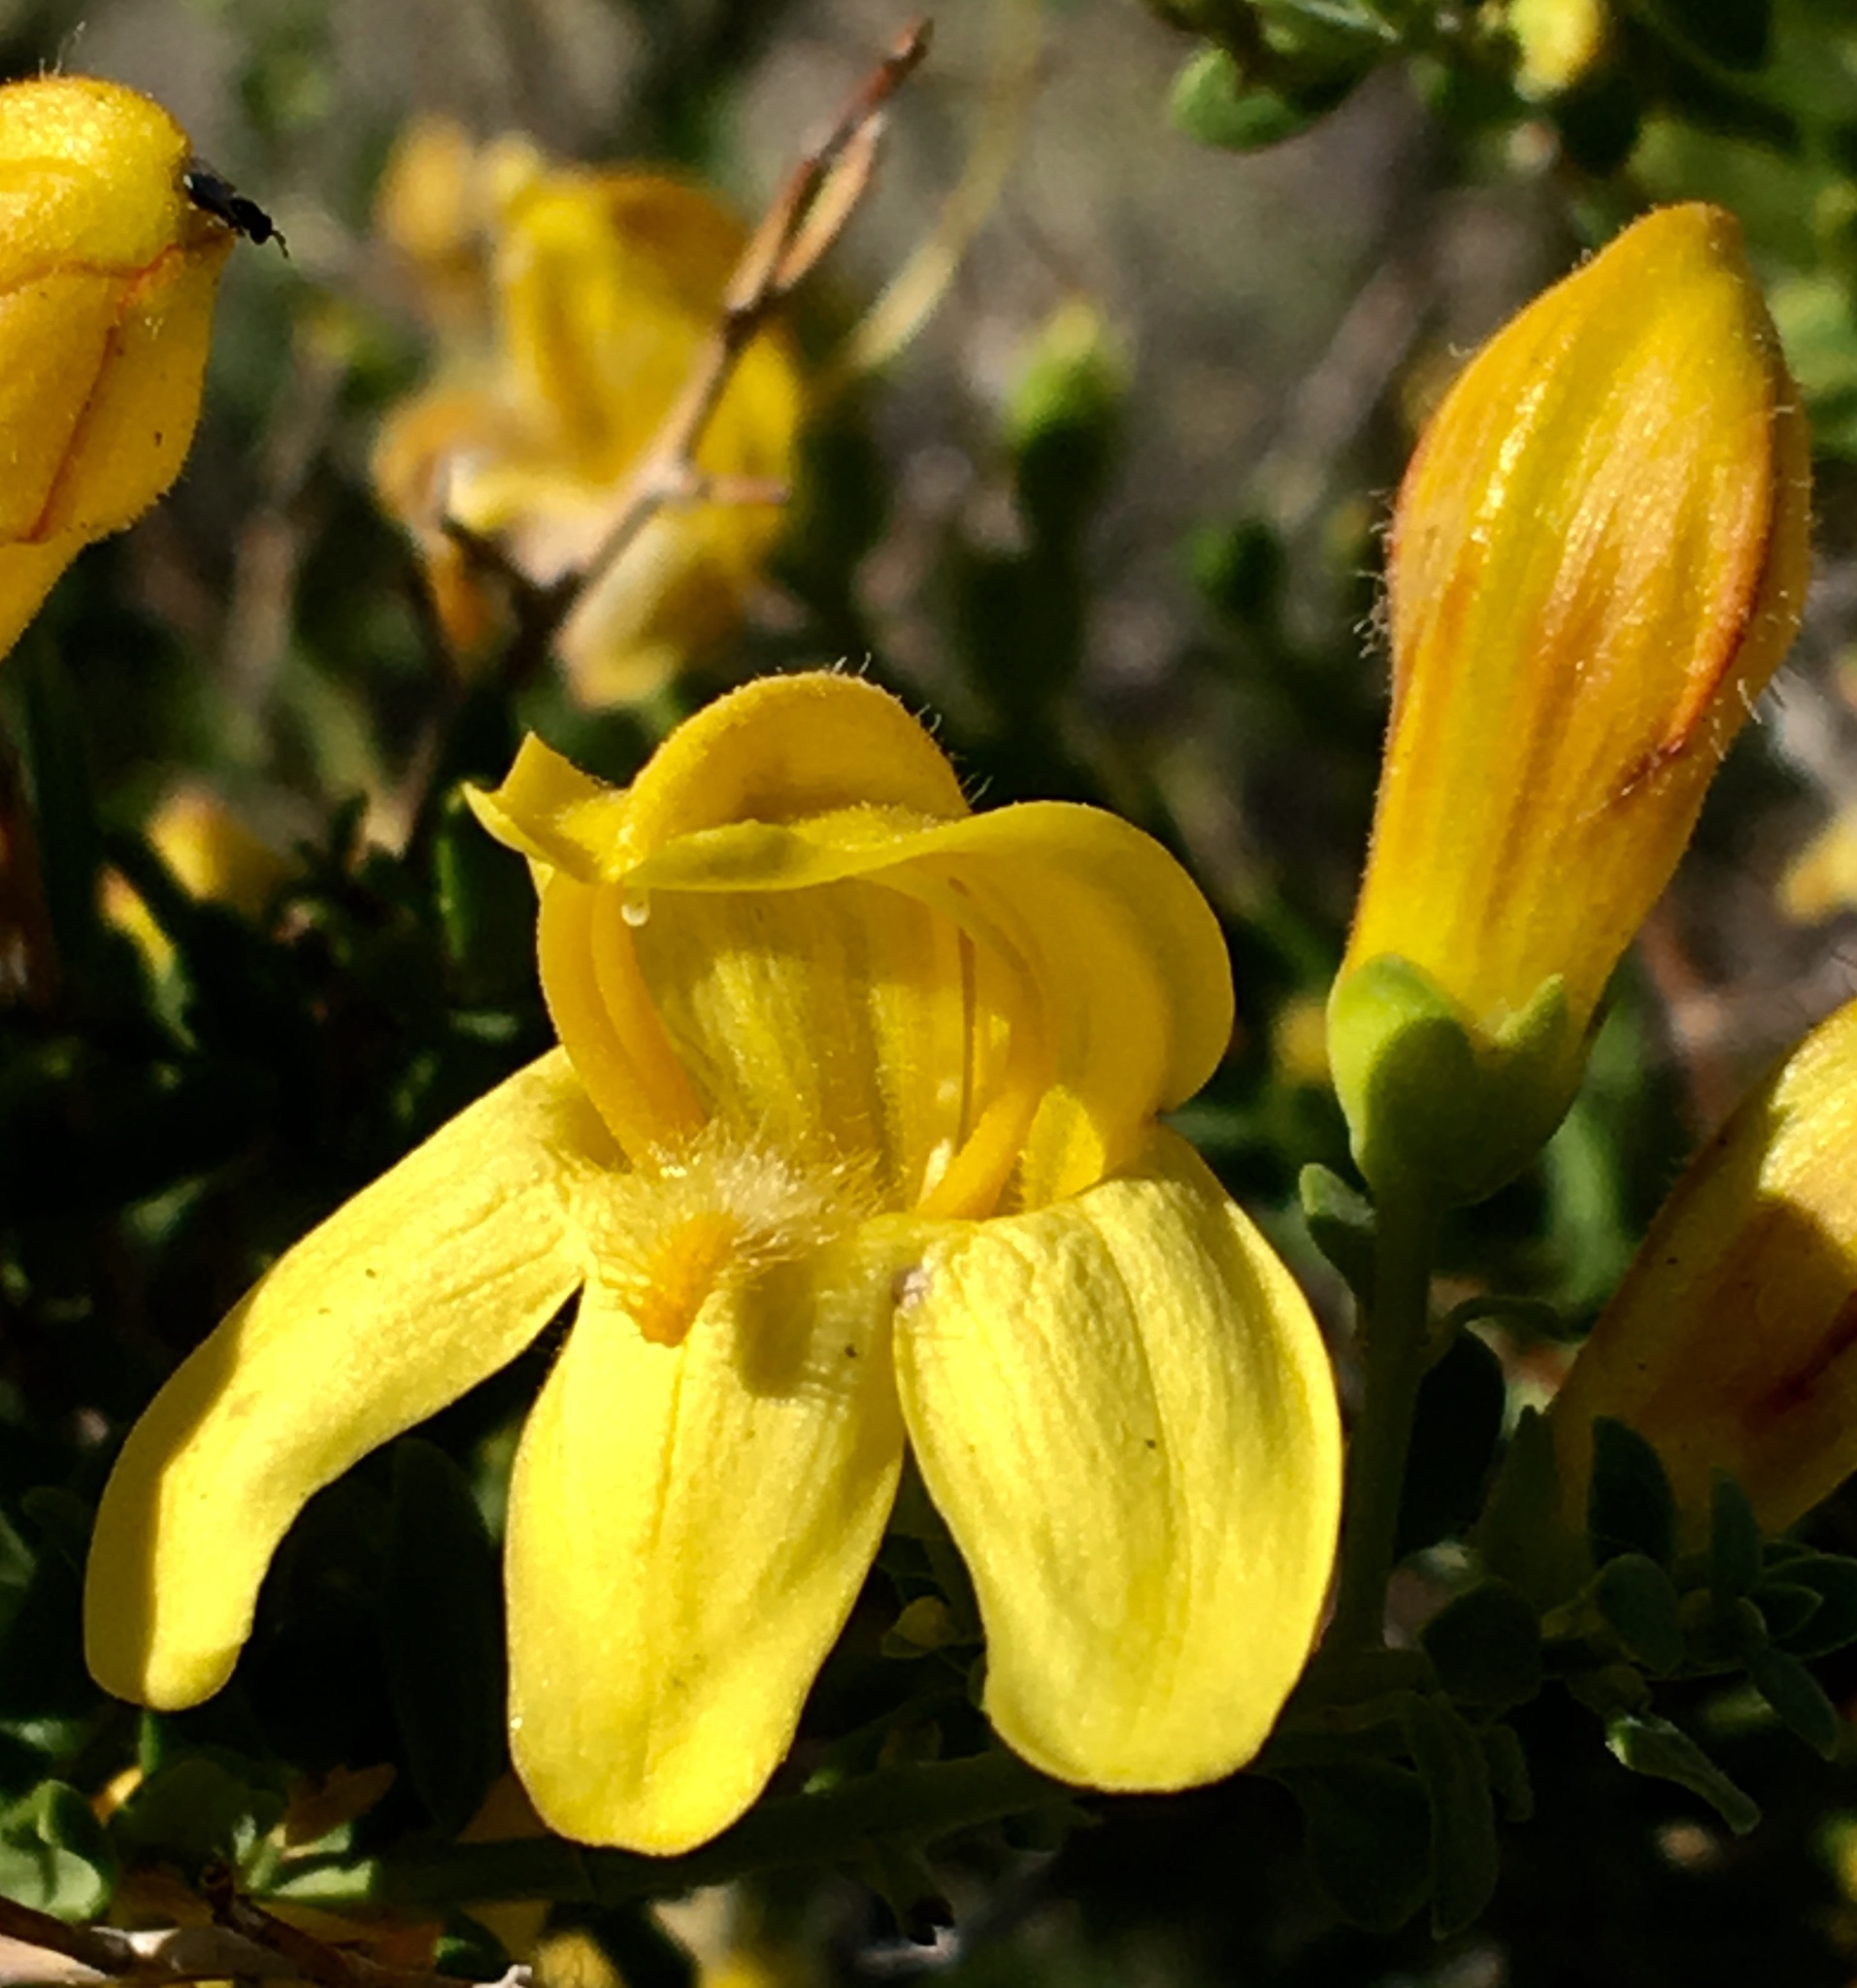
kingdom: Plantae
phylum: Tracheophyta
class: Magnoliopsida
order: Lamiales
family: Plantaginaceae
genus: Keckiella
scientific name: Keckiella antirrhinoides
